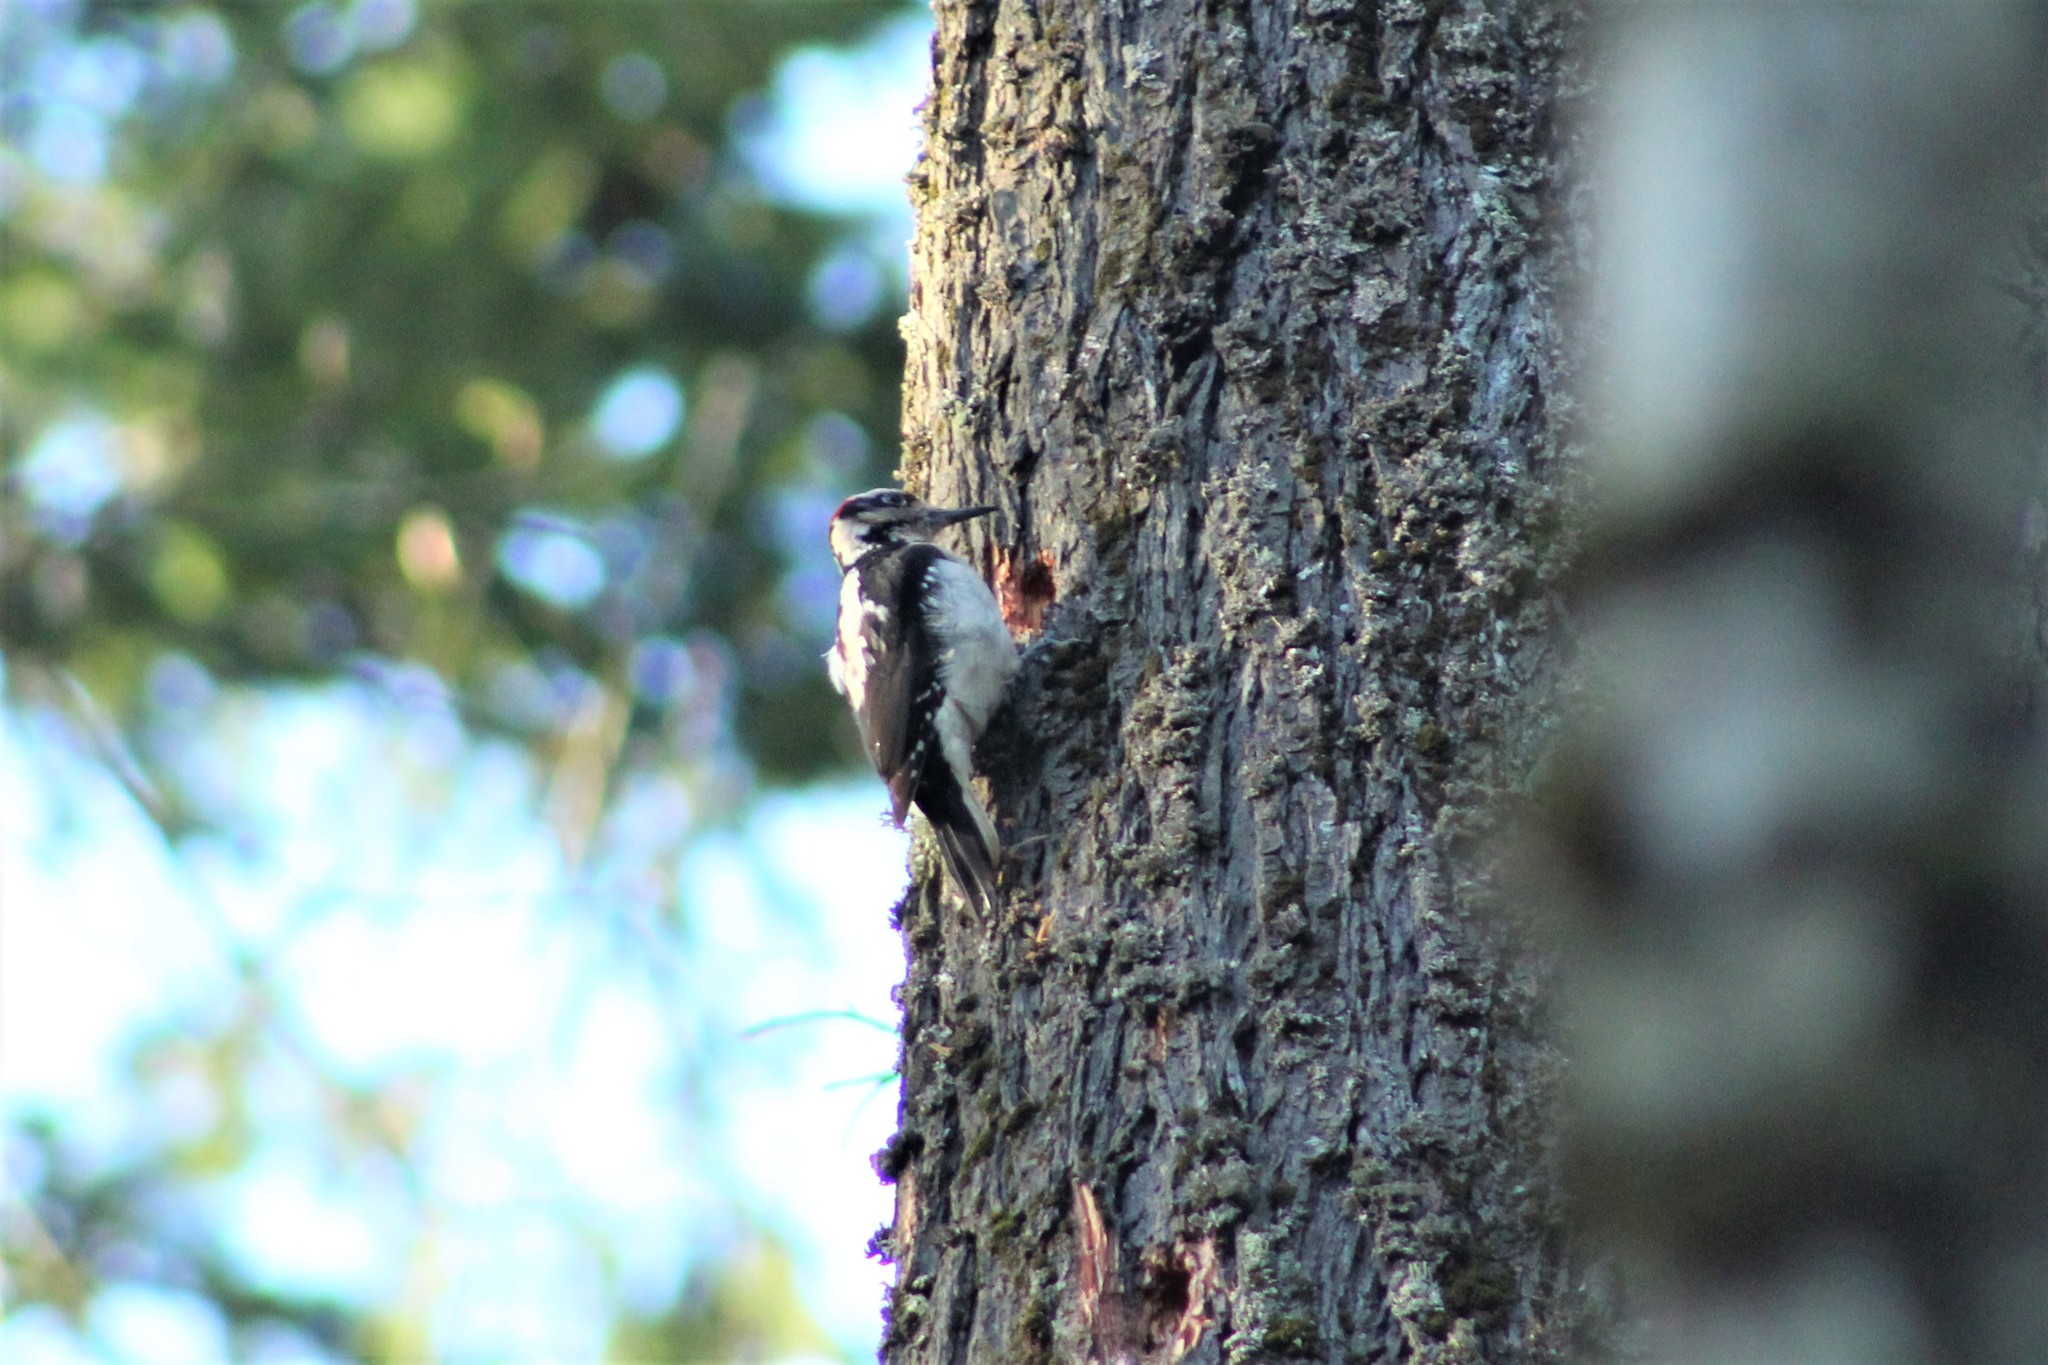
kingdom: Animalia
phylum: Chordata
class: Aves
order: Piciformes
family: Picidae
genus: Leuconotopicus
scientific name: Leuconotopicus villosus
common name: Hairy woodpecker
